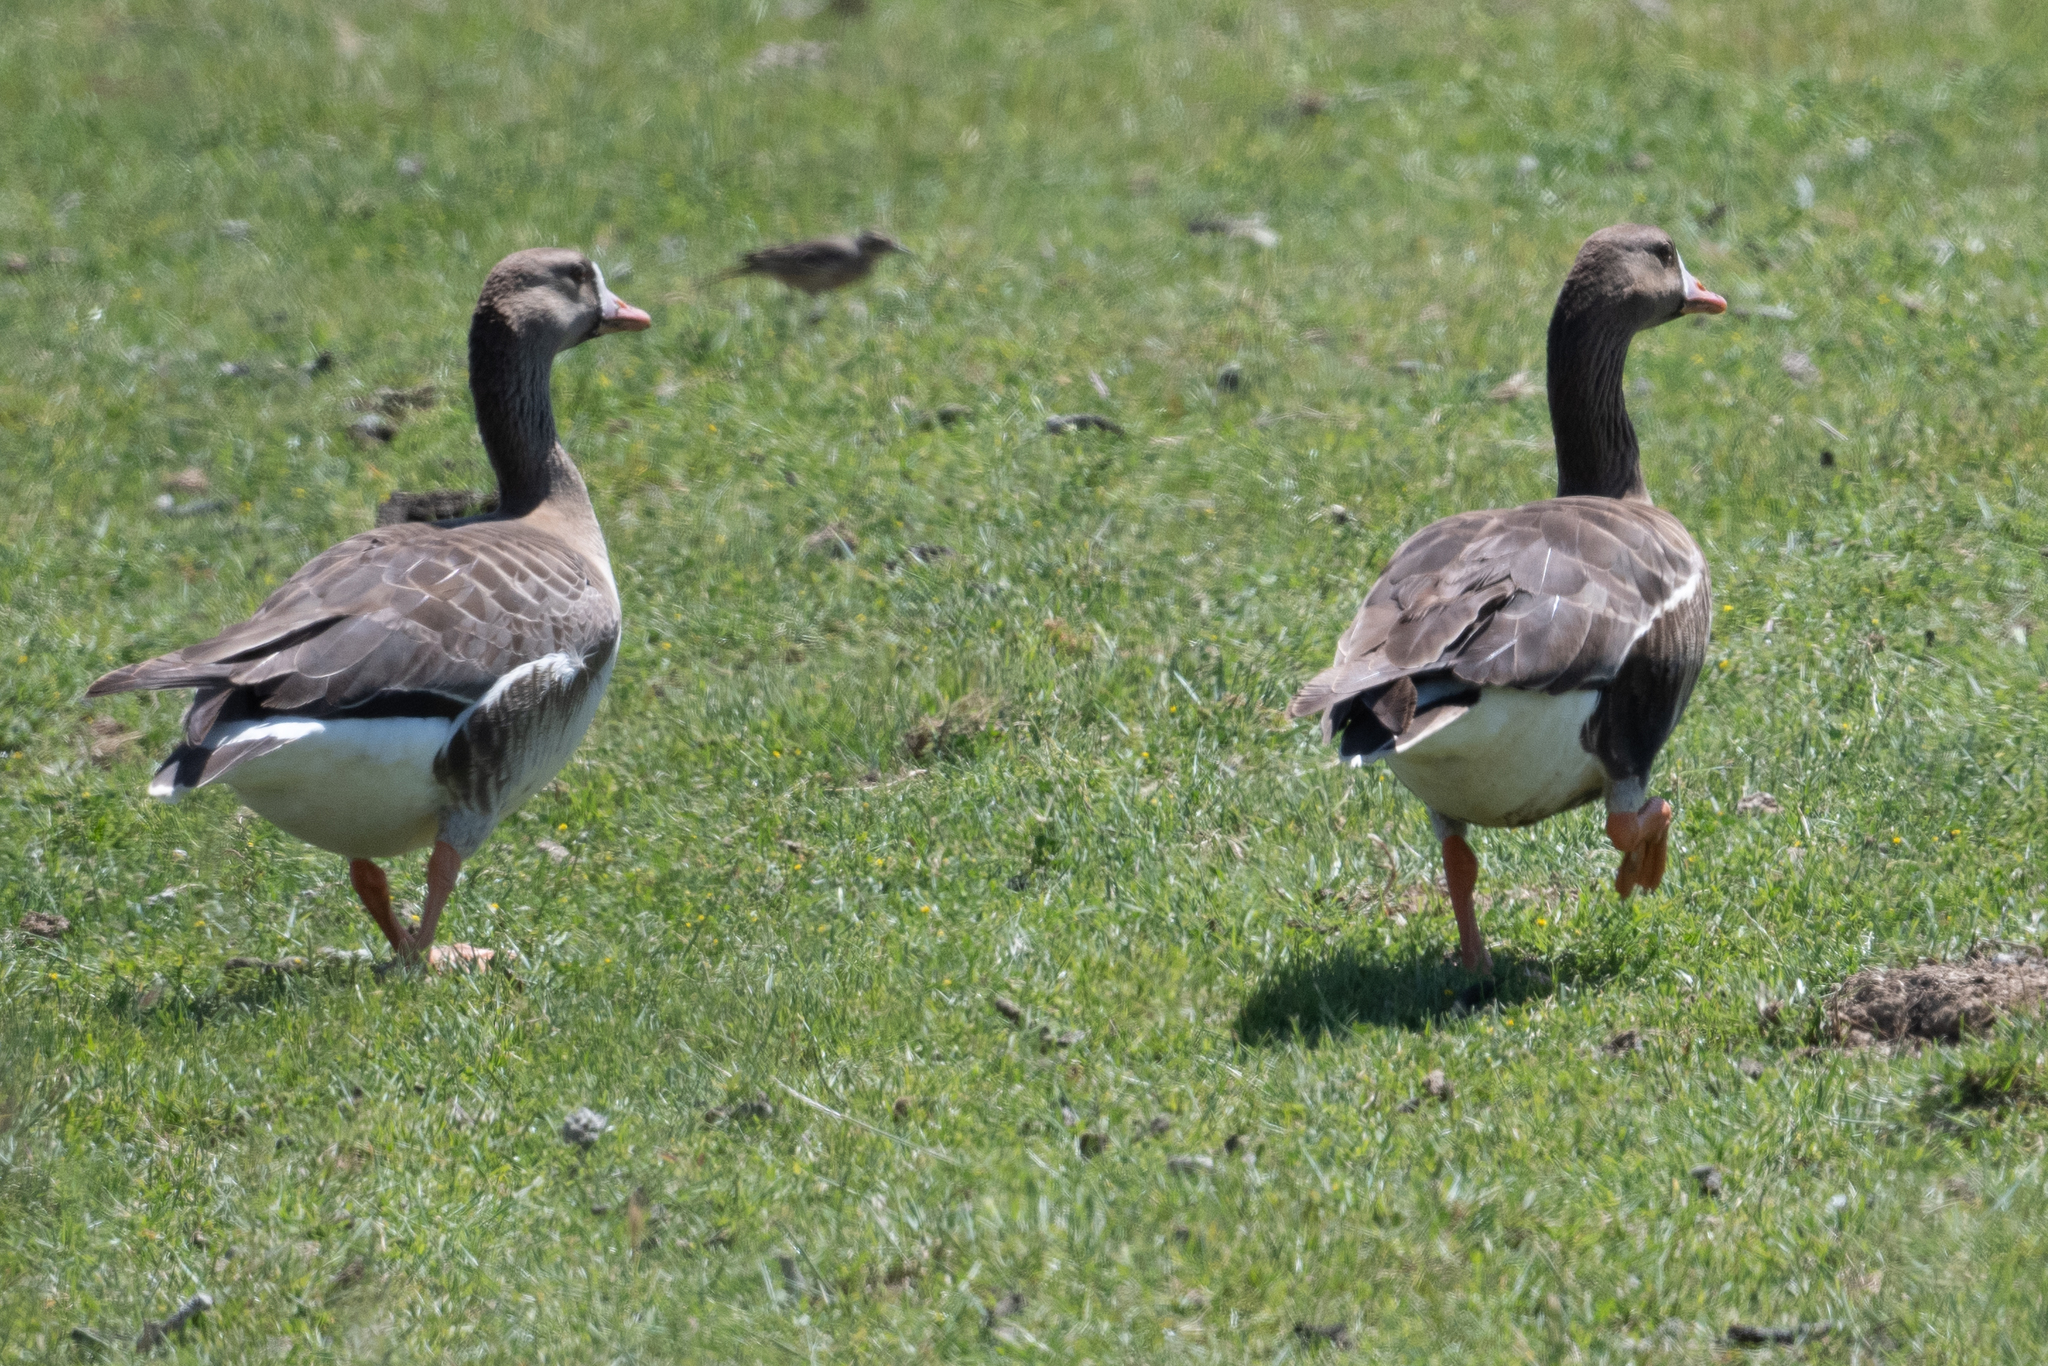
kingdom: Animalia
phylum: Chordata
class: Aves
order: Anseriformes
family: Anatidae
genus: Anser
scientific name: Anser albifrons
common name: Greater white-fronted goose
